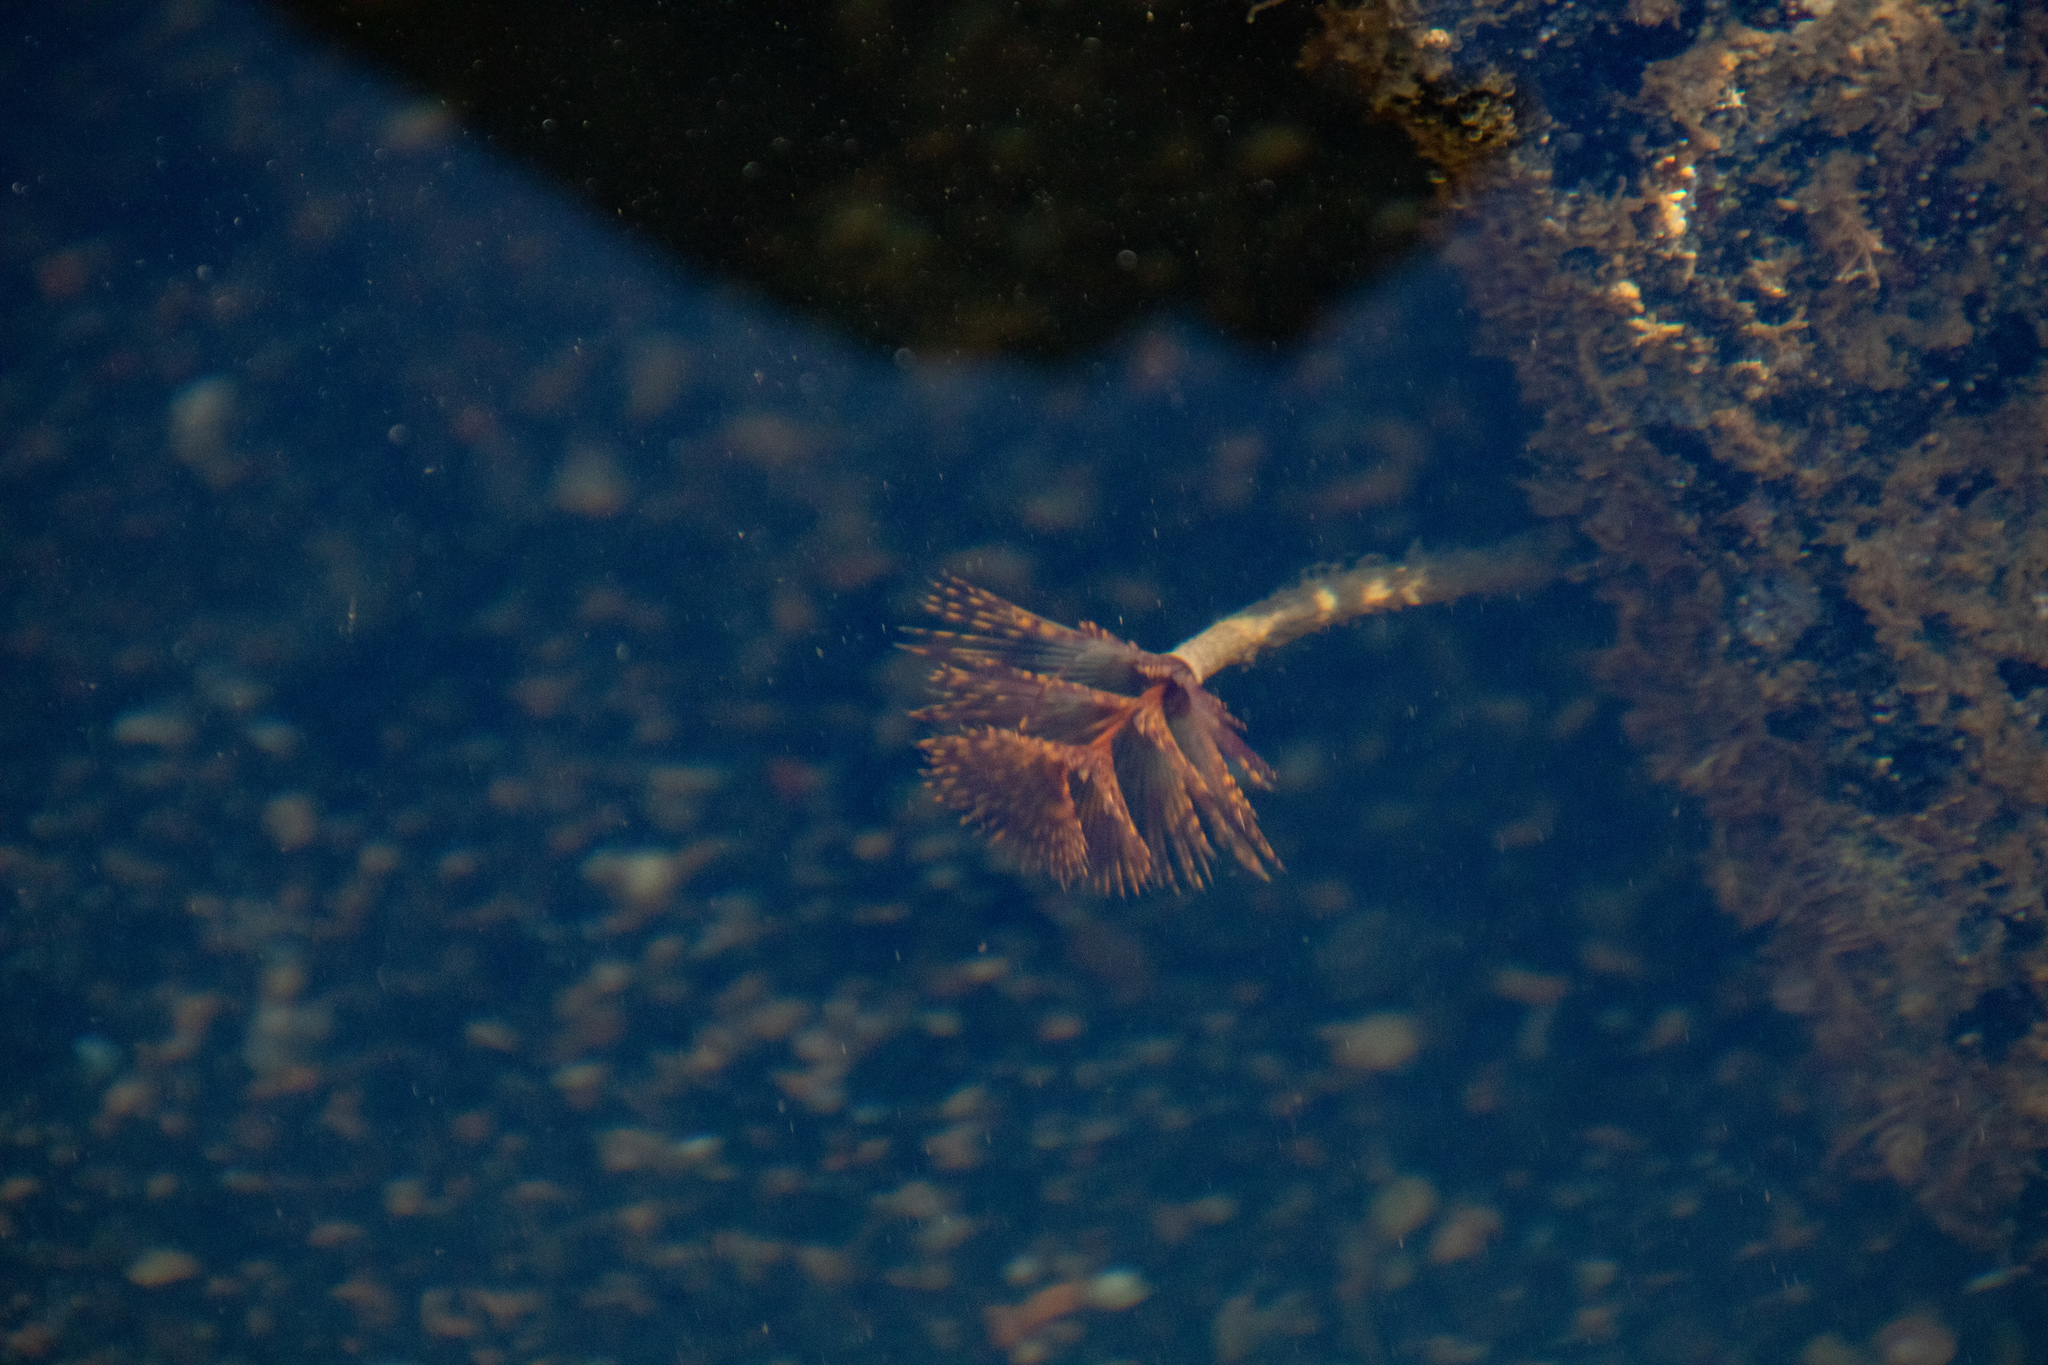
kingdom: Animalia
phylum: Annelida
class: Polychaeta
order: Sabellida
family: Sabellidae
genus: Sabella
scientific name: Sabella spallanzanii
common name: Feather duster worm
